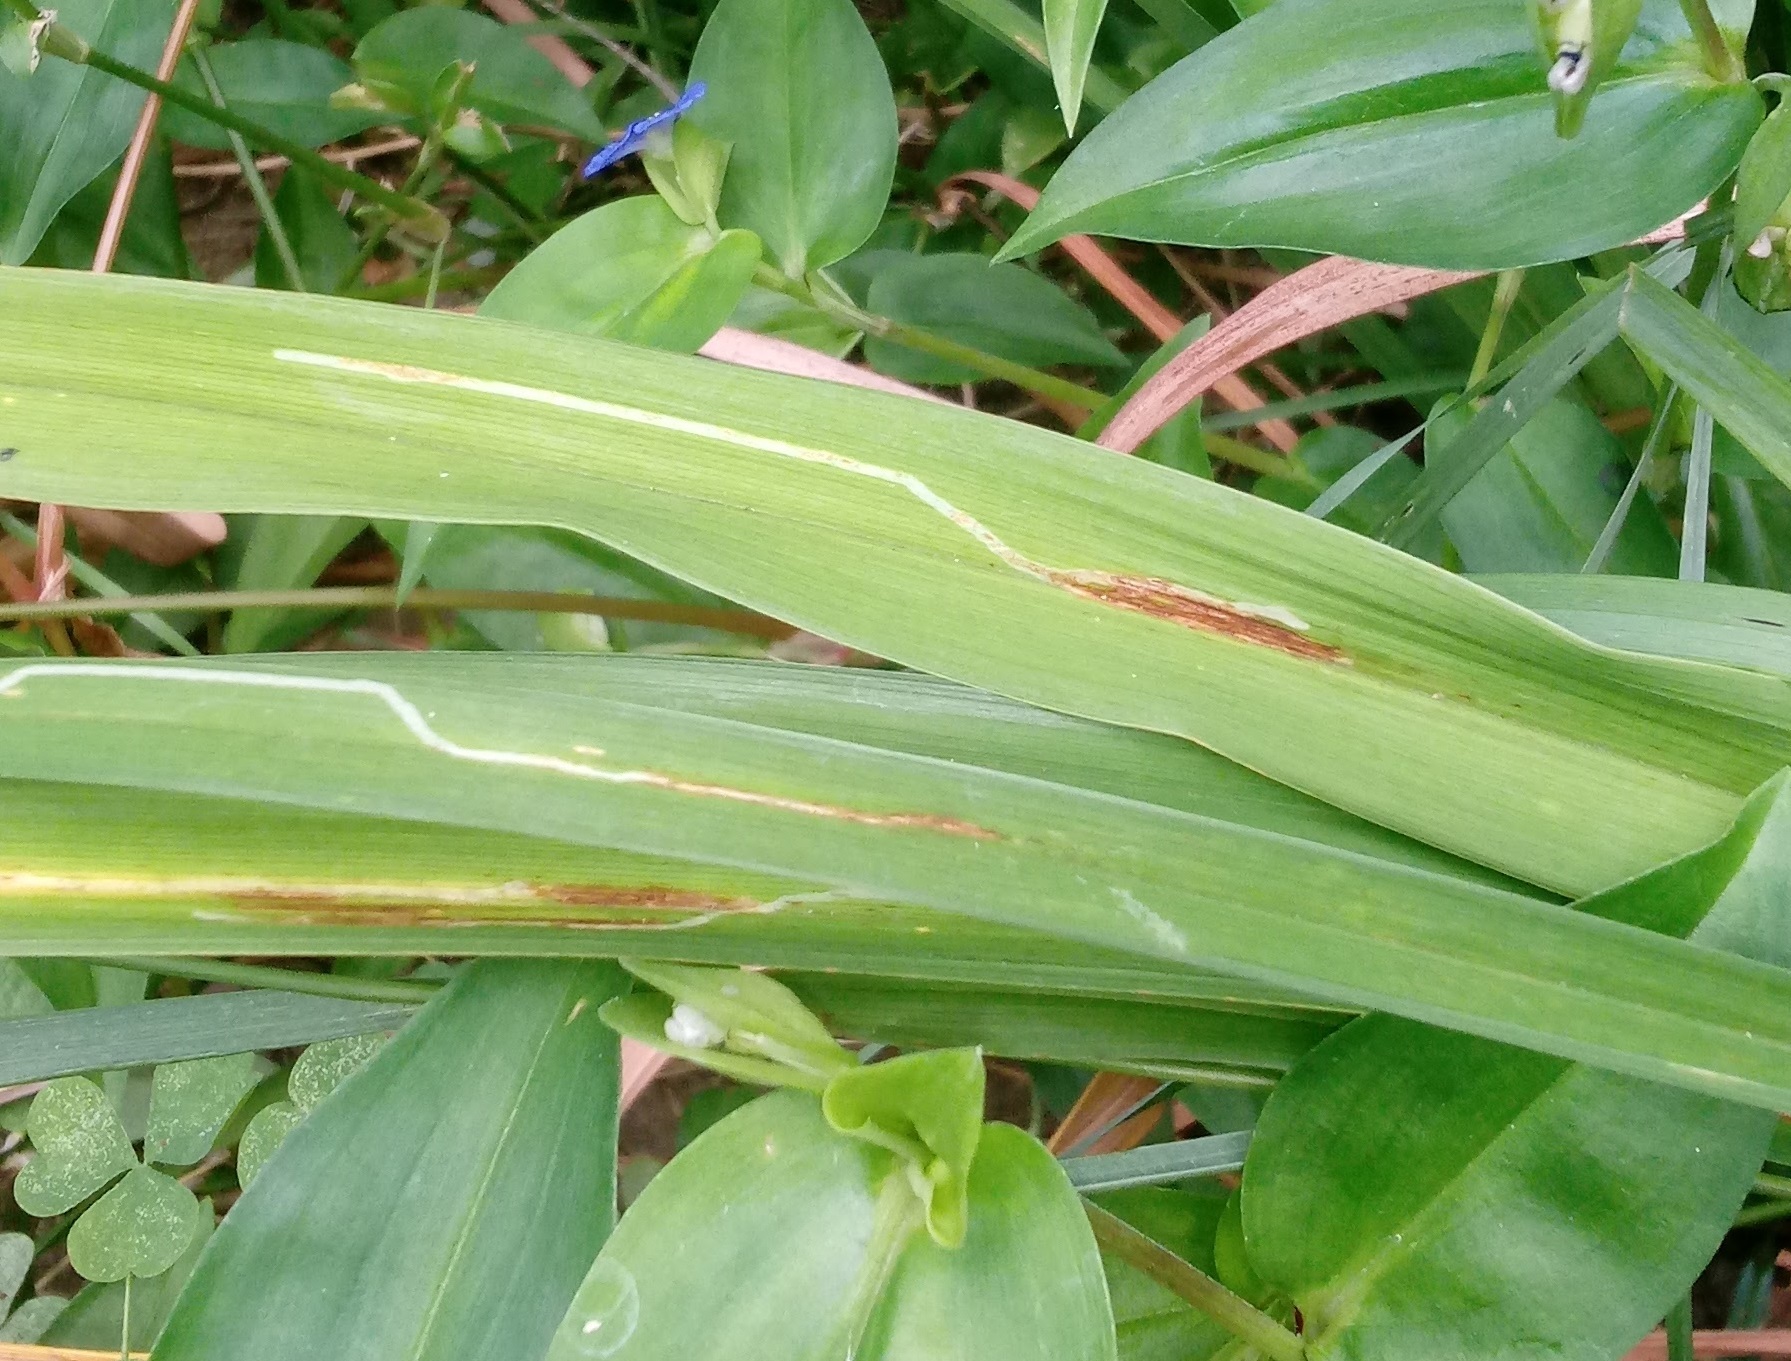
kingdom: Animalia
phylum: Arthropoda
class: Insecta
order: Diptera
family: Agromyzidae
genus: Ophiomyia
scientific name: Ophiomyia kwansonis
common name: Daylily leafminer
